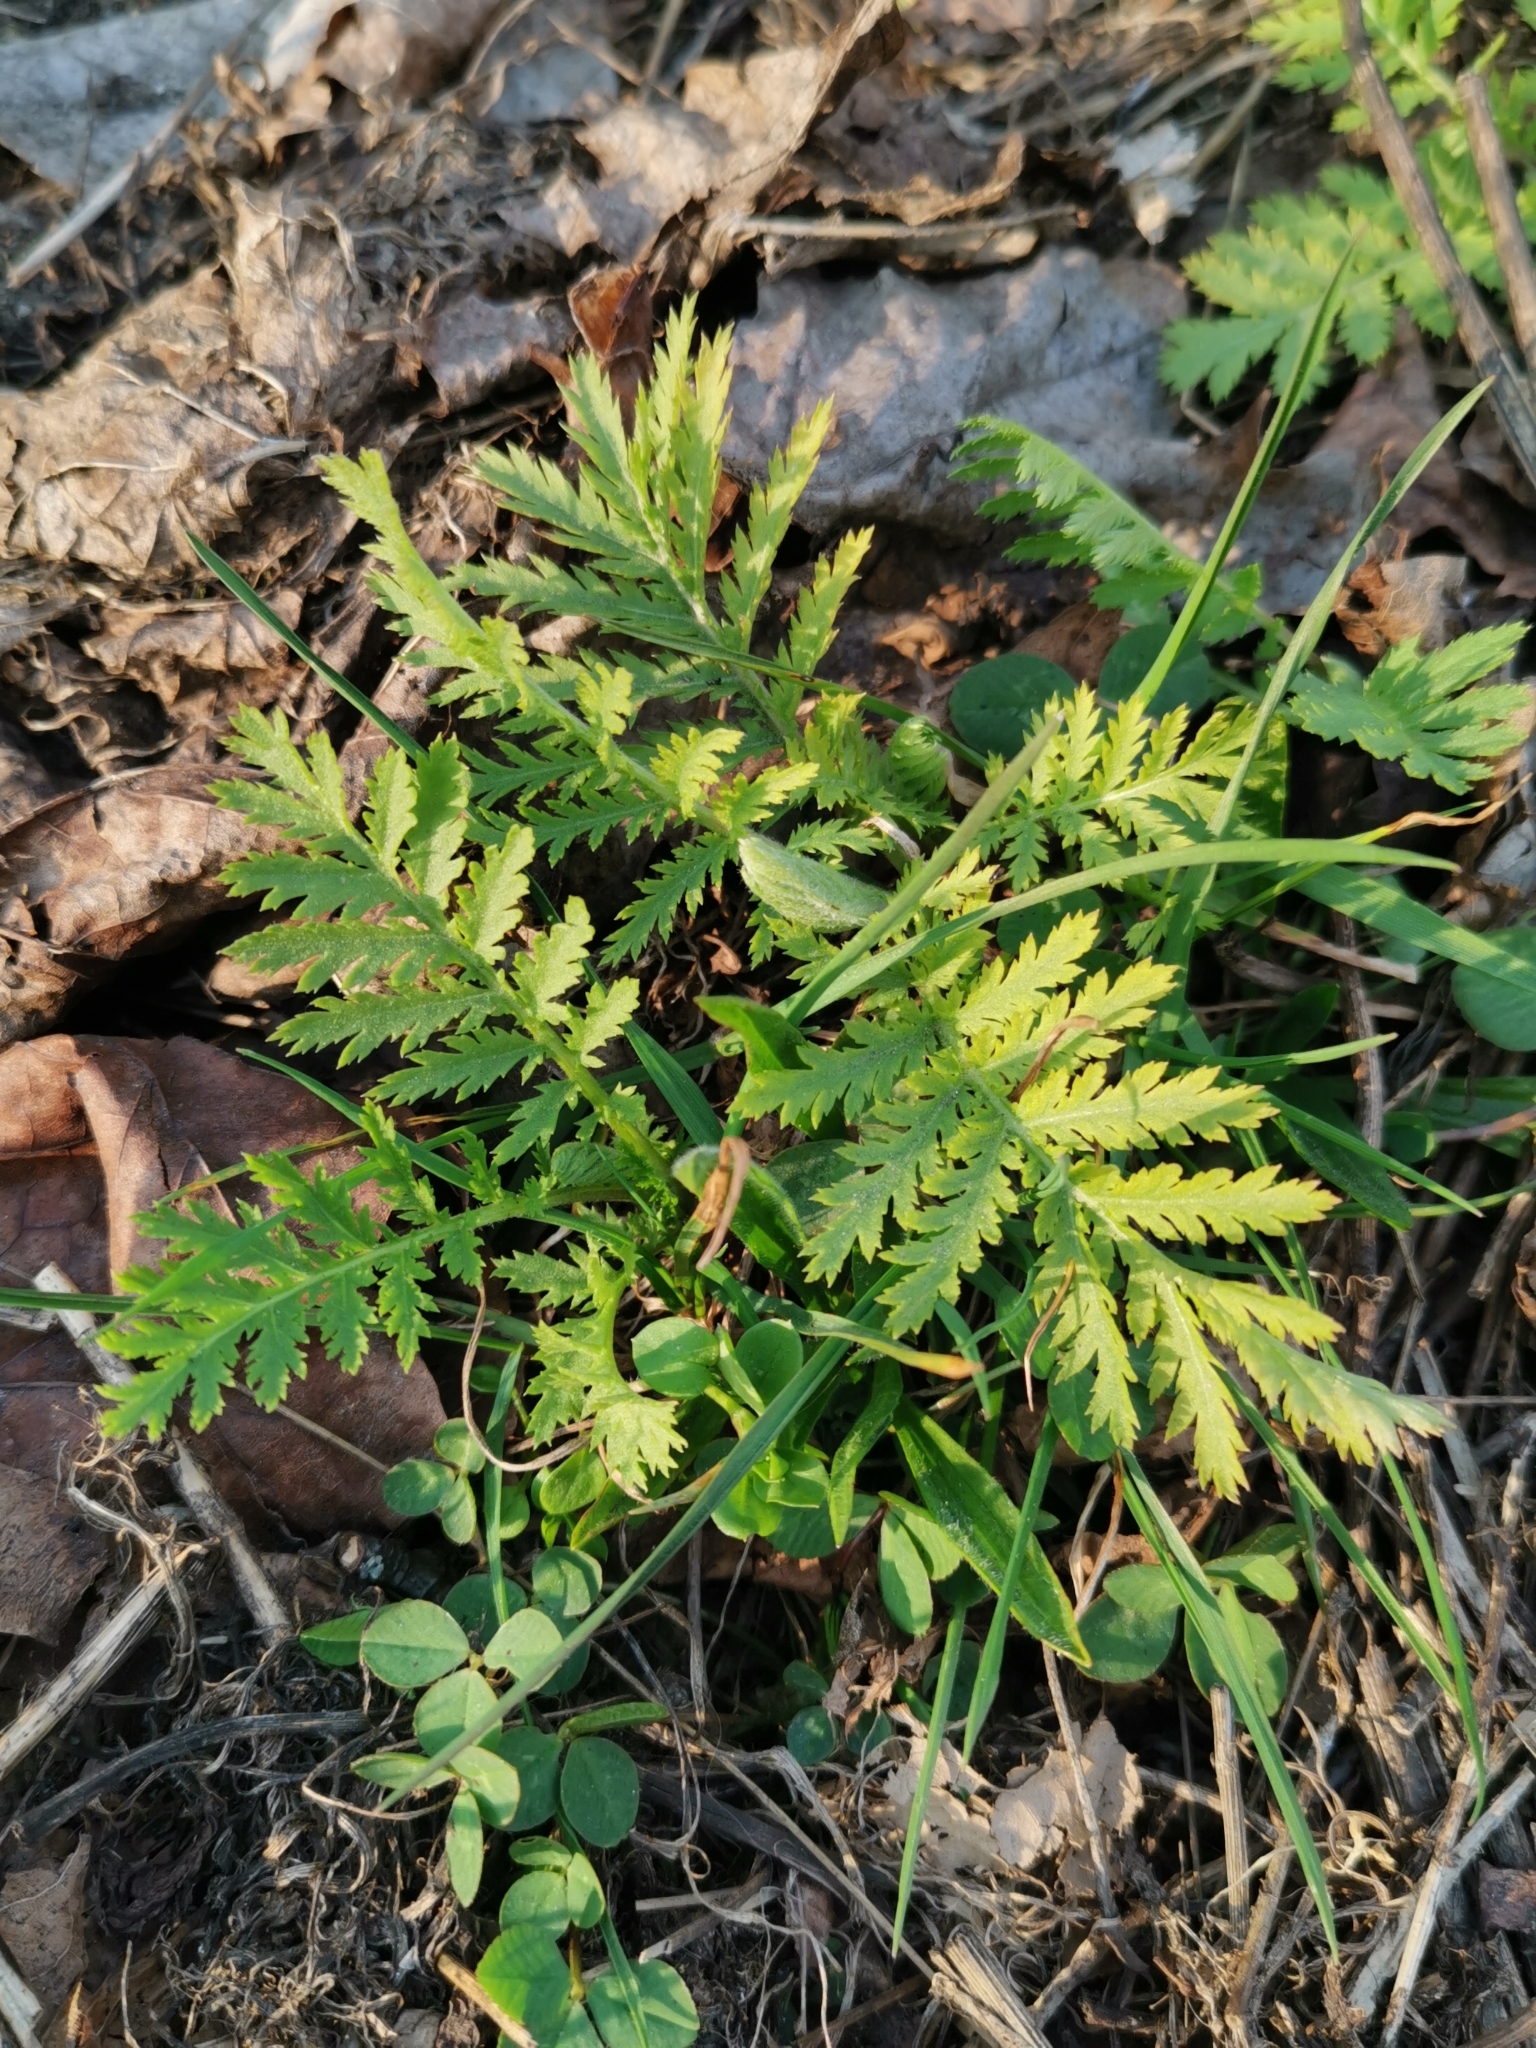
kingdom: Plantae
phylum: Tracheophyta
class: Magnoliopsida
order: Asterales
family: Asteraceae
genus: Tanacetum
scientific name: Tanacetum vulgare
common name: Common tansy
